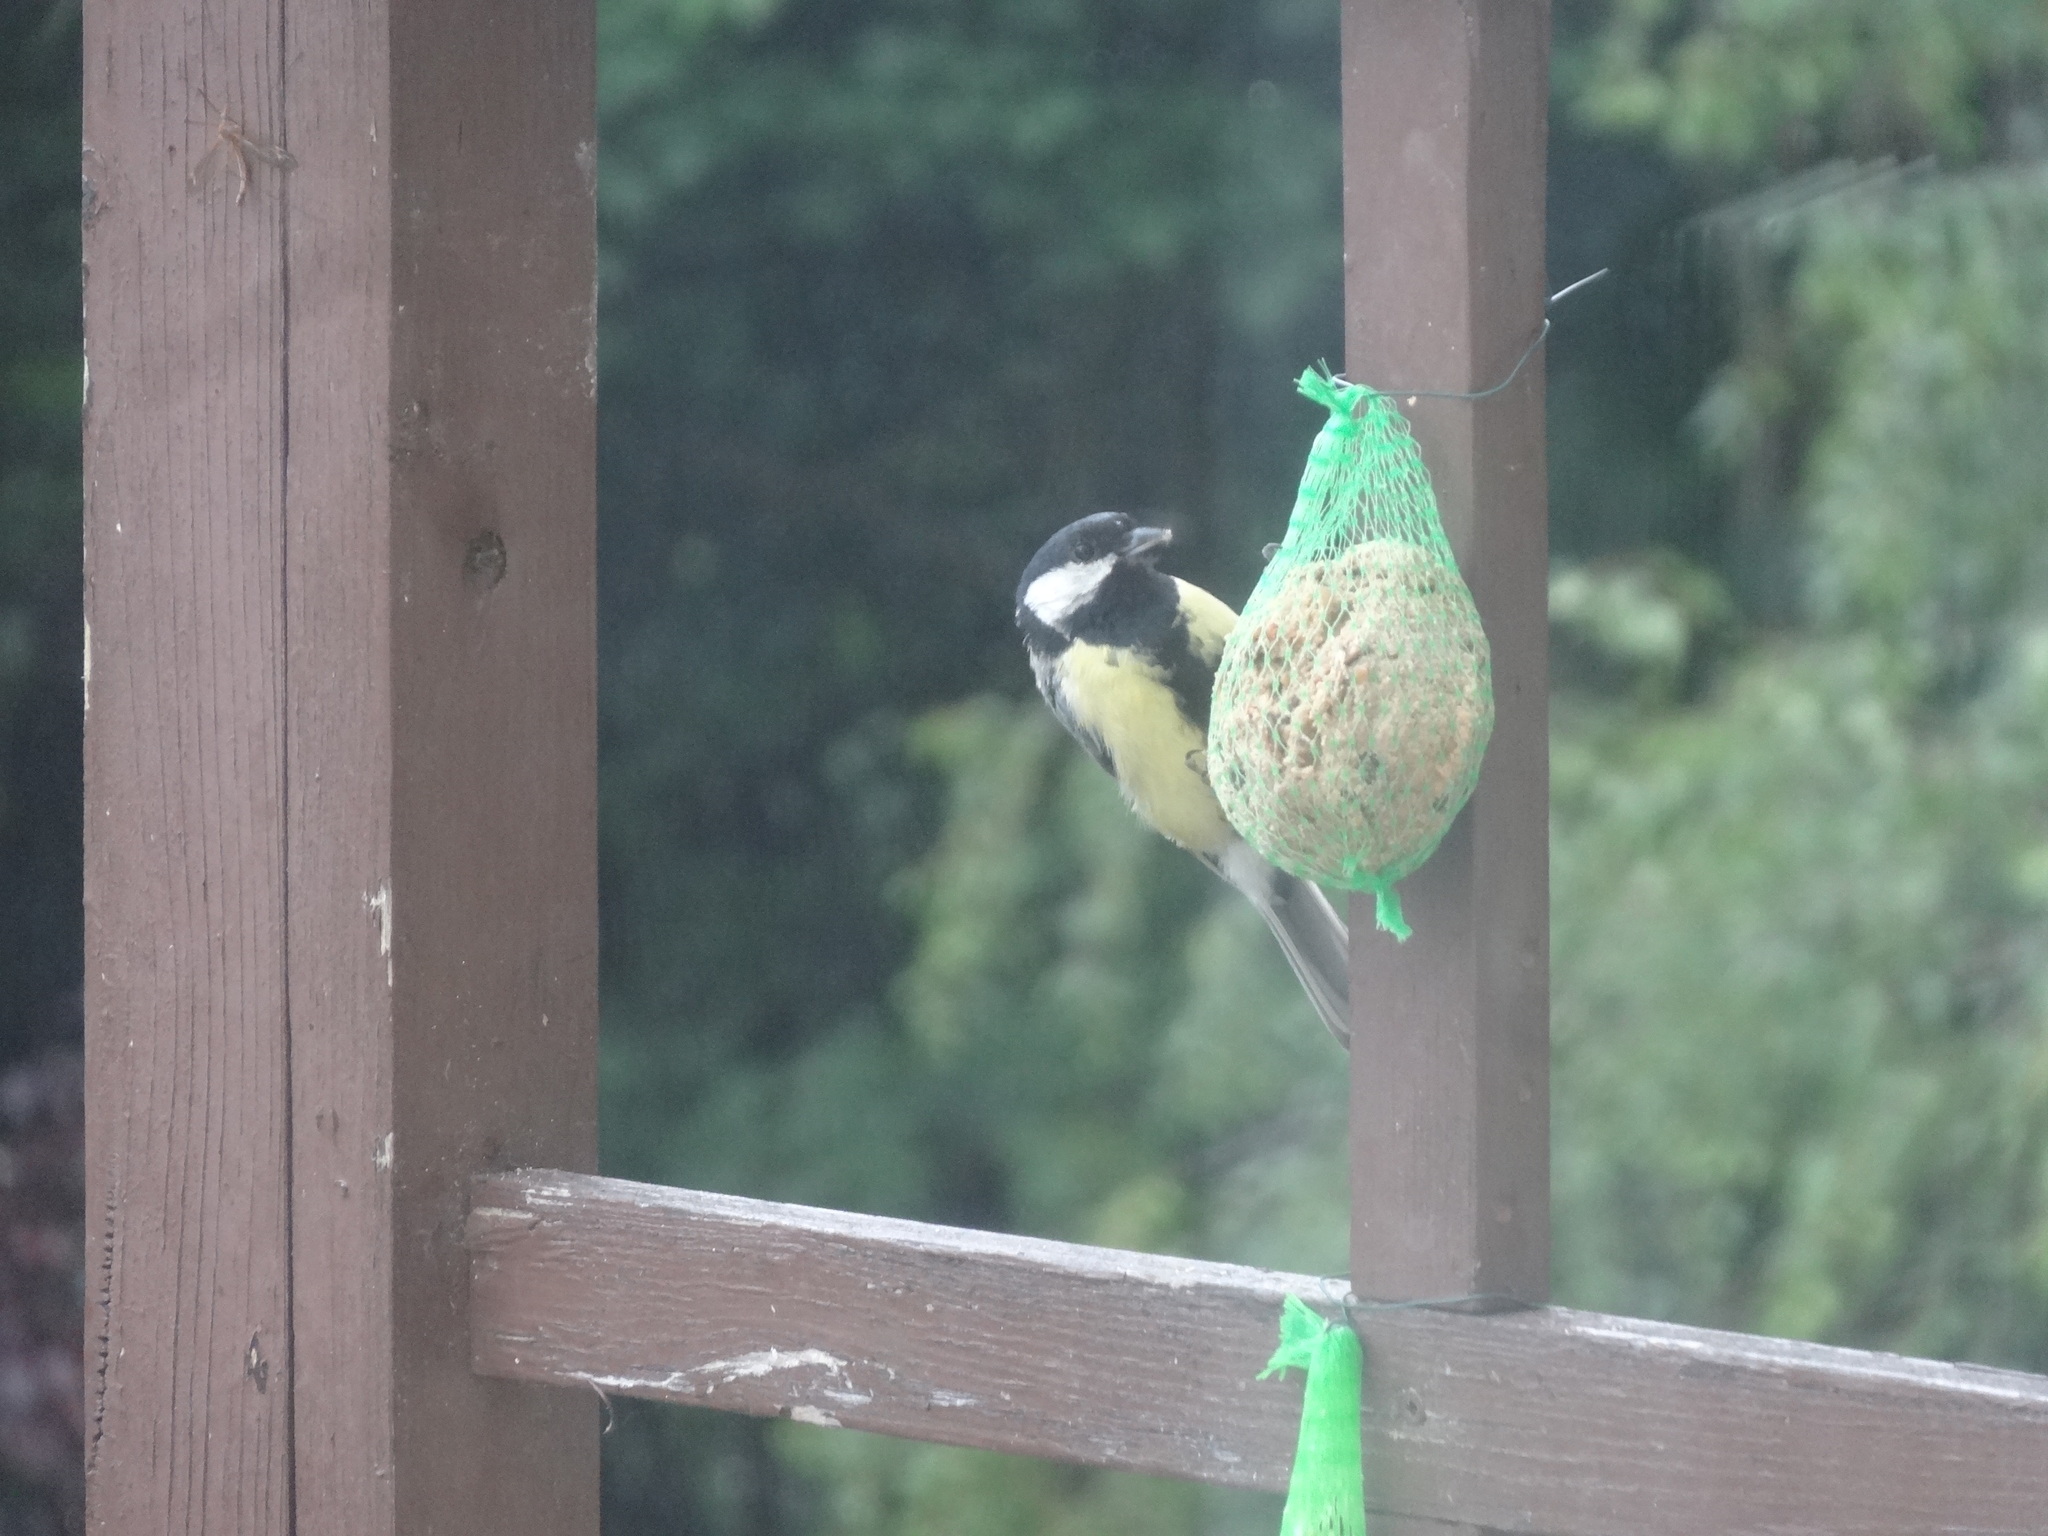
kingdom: Animalia
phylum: Chordata
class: Aves
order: Passeriformes
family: Paridae
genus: Parus
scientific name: Parus major
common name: Great tit
